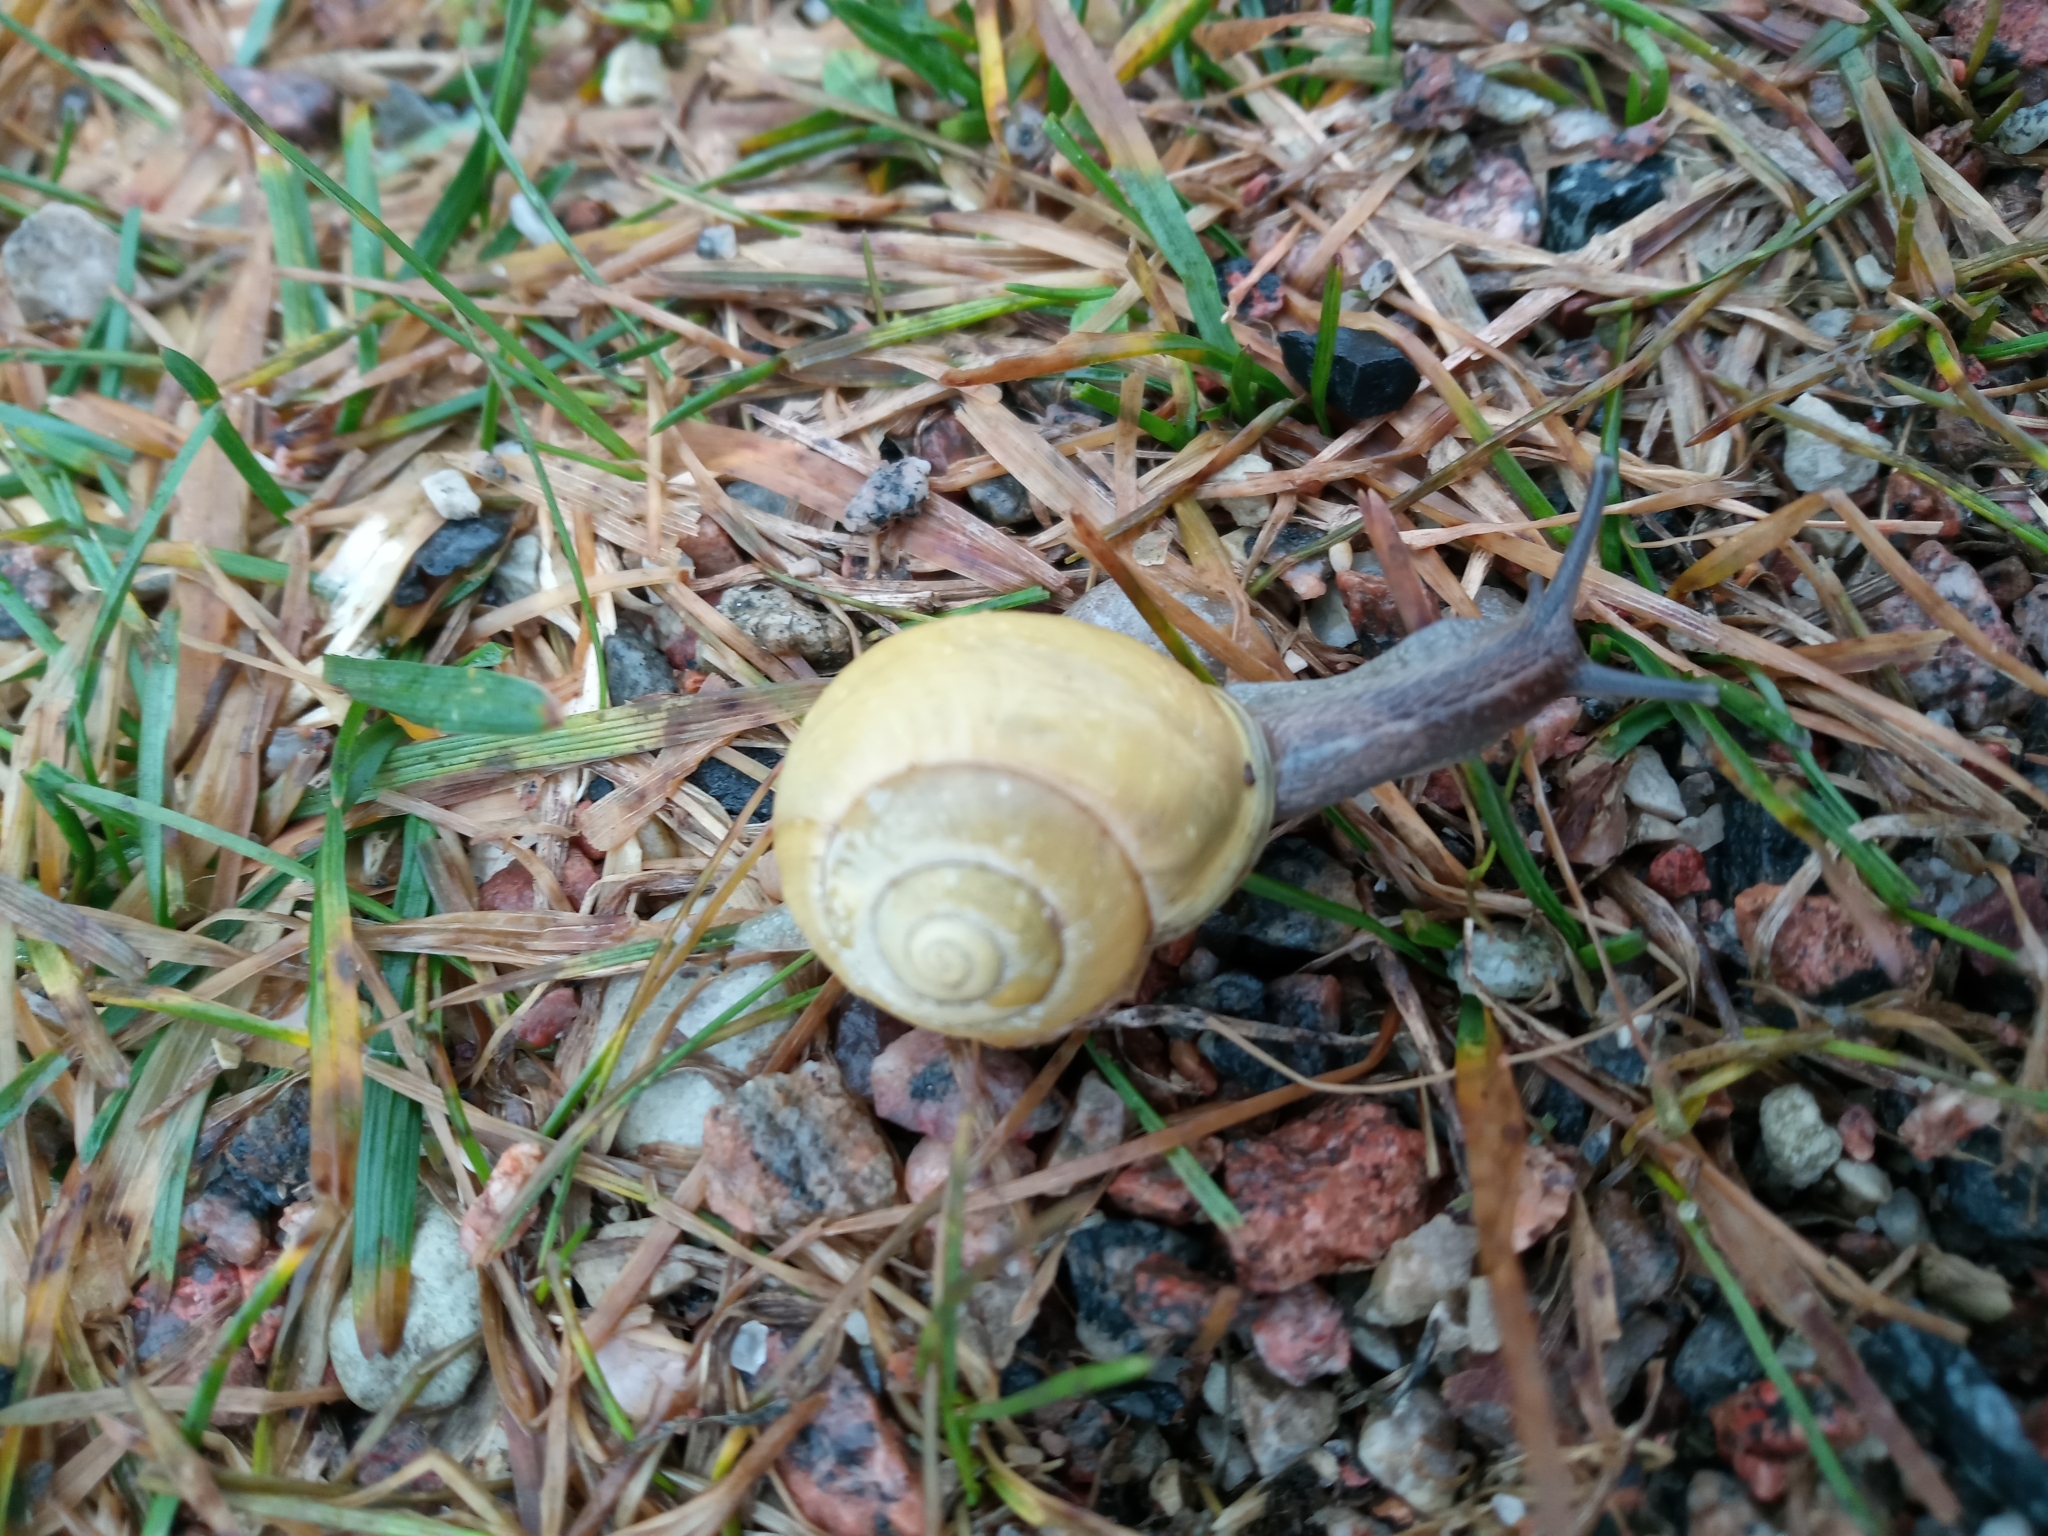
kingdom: Animalia
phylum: Mollusca
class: Gastropoda
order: Stylommatophora
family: Helicidae
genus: Cepaea
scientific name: Cepaea hortensis
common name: White-lip gardensnail
